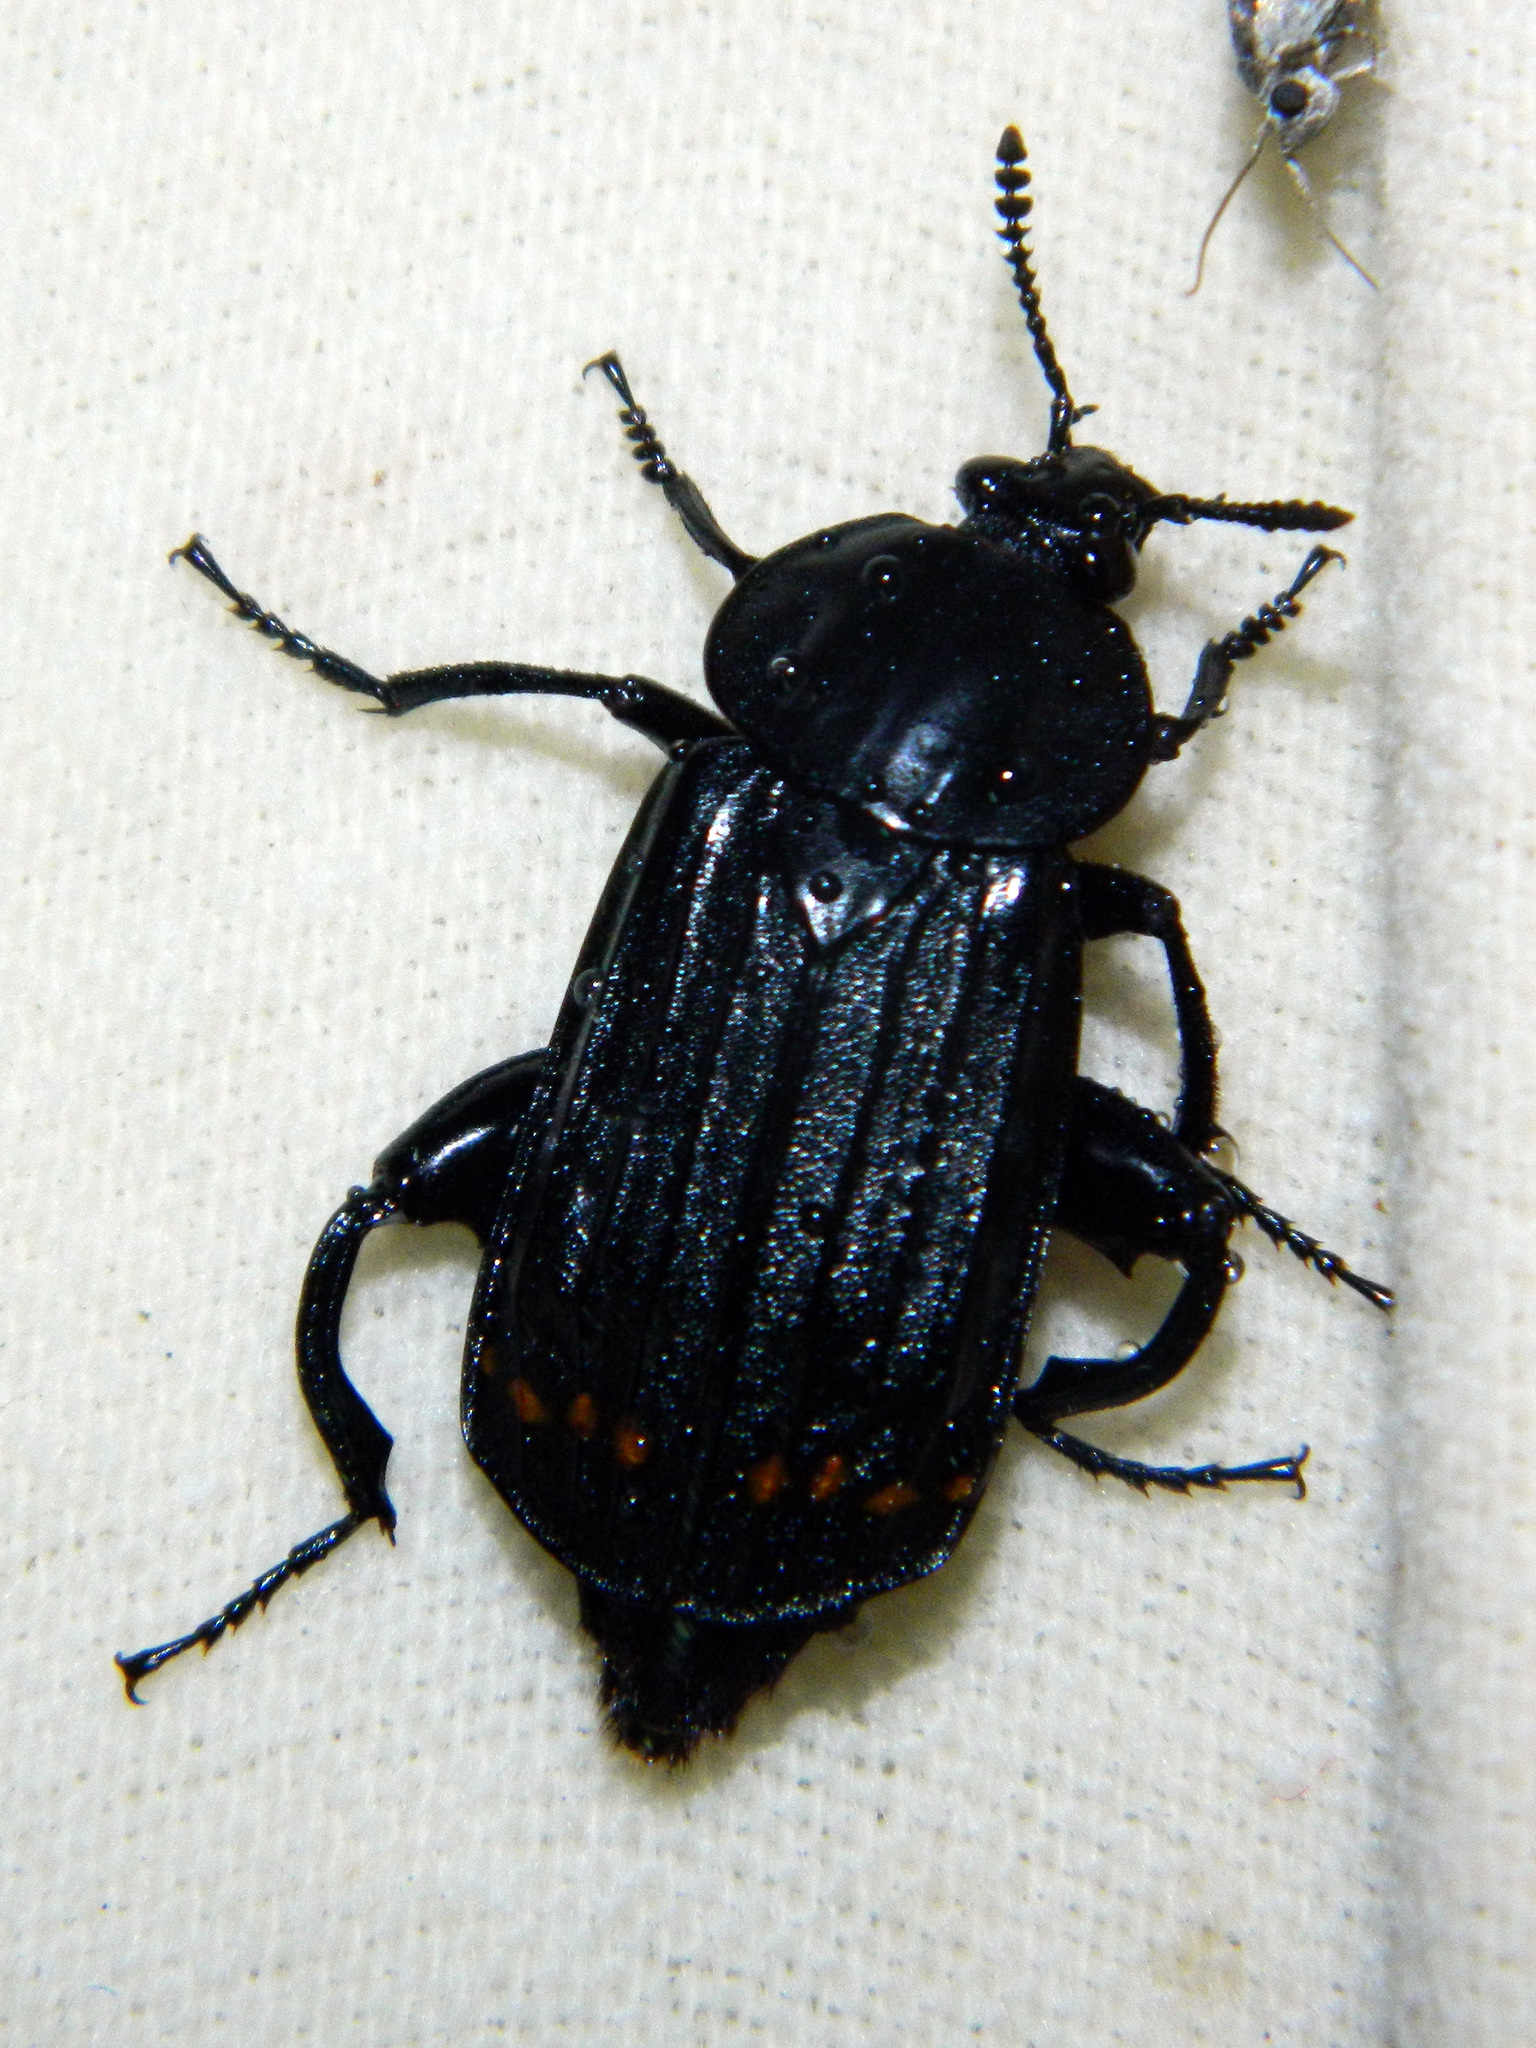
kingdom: Animalia
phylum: Arthropoda
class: Insecta
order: Coleoptera
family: Staphylinidae
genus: Necrodes
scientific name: Necrodes surinamensis
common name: Red-lined carrion beetle
